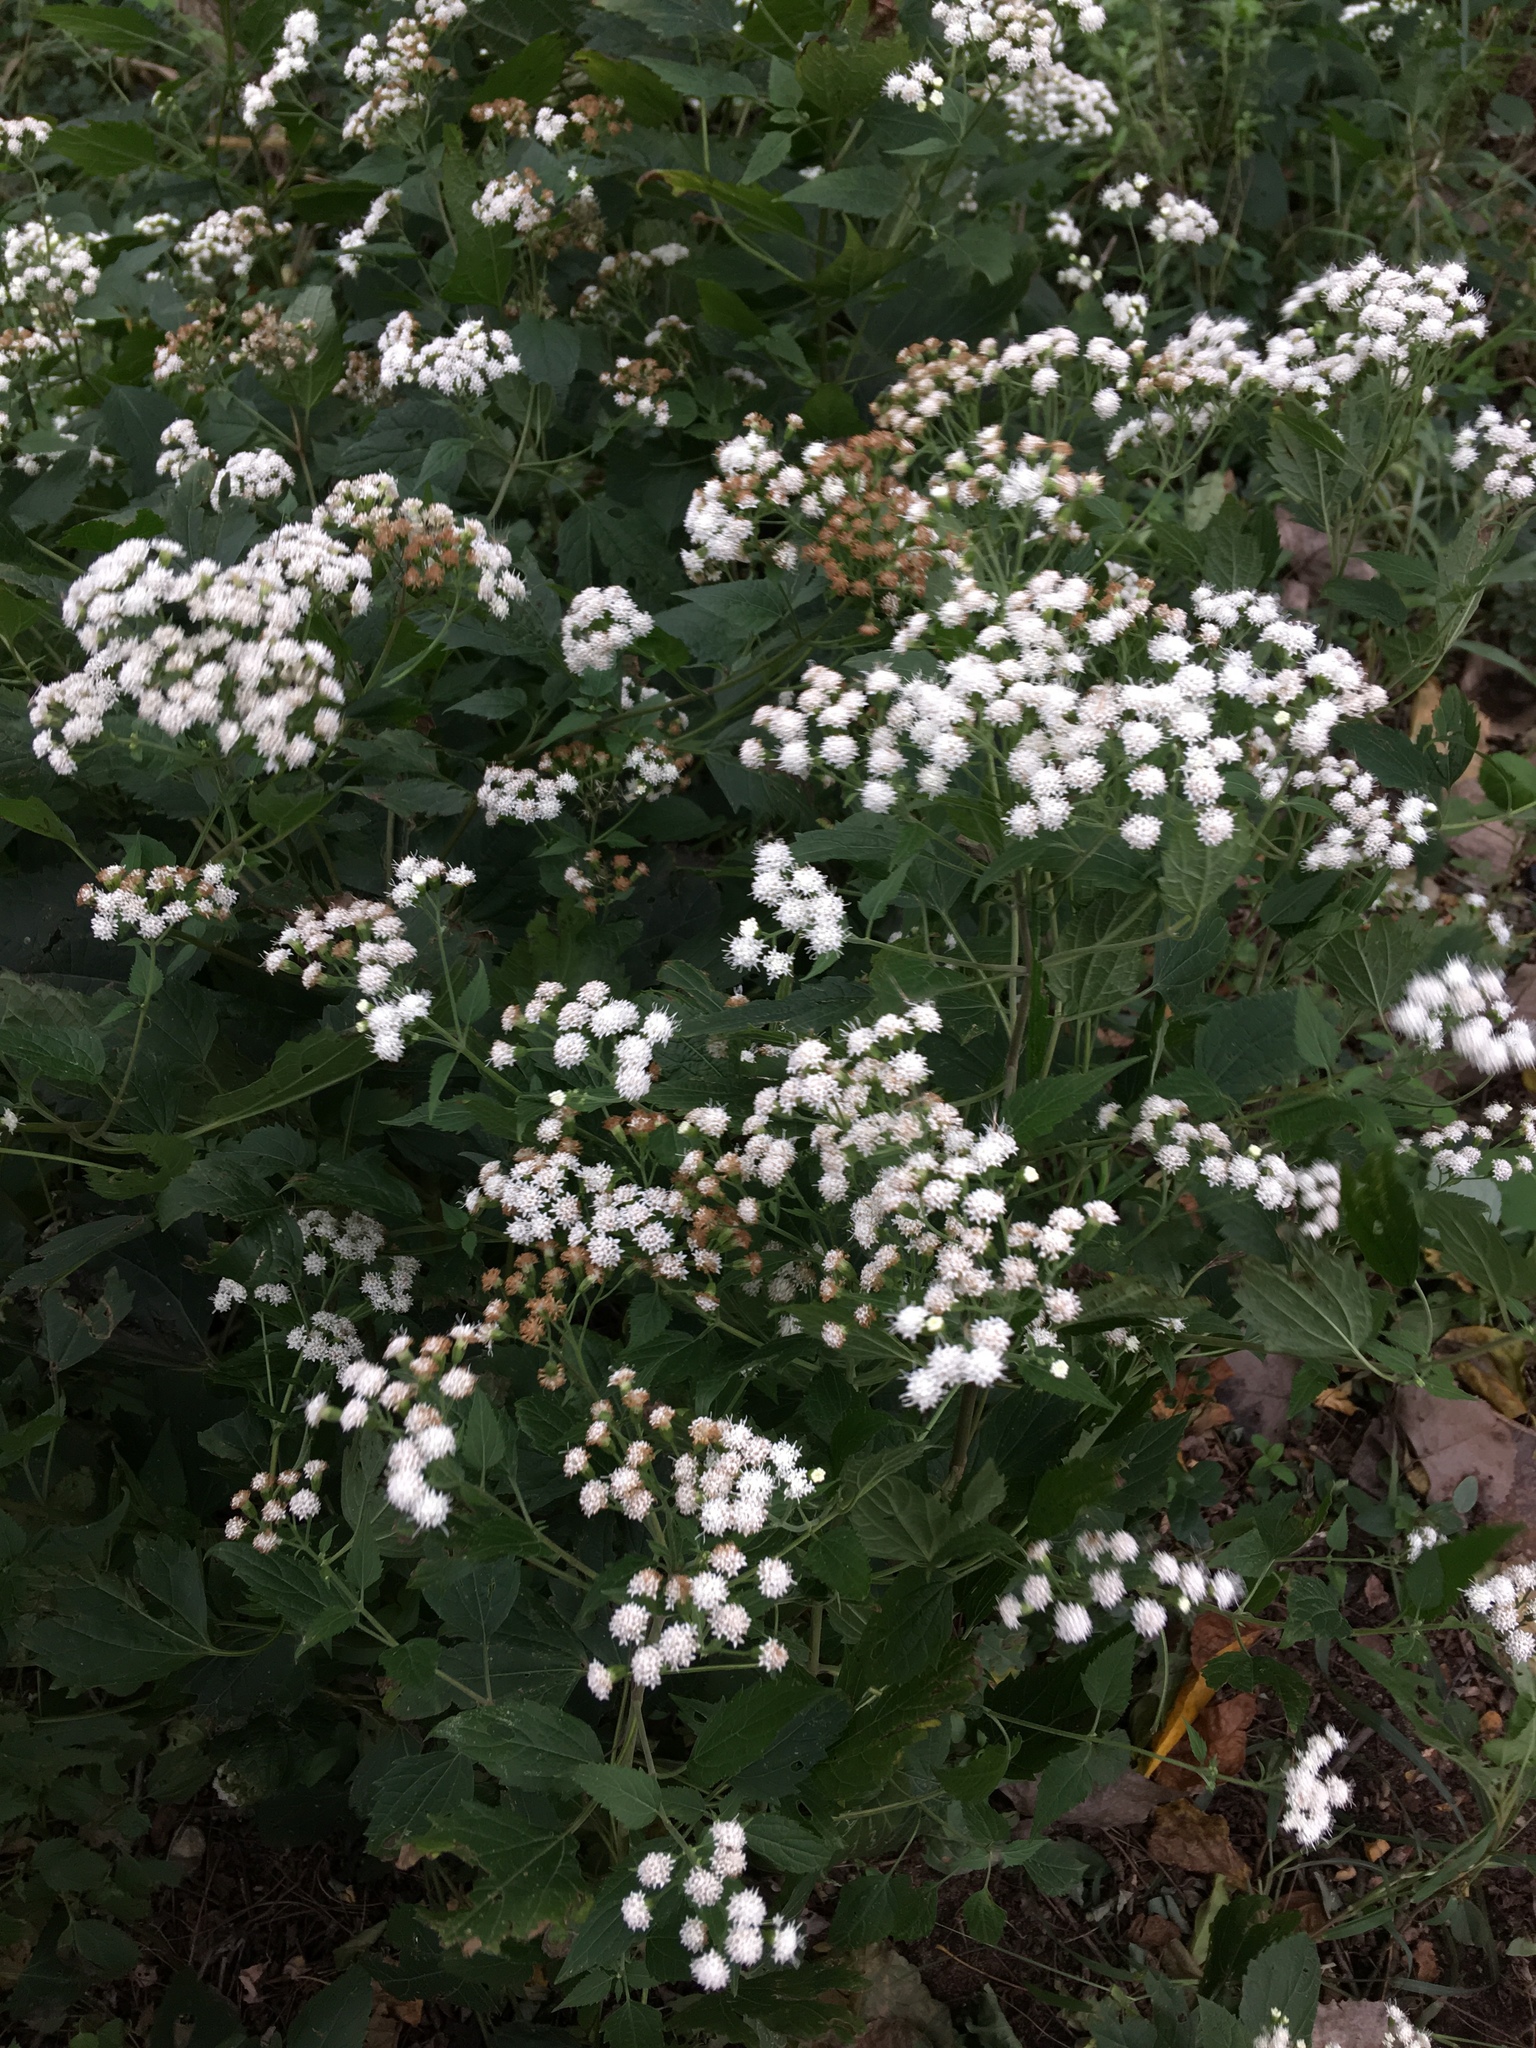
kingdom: Plantae
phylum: Tracheophyta
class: Magnoliopsida
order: Asterales
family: Asteraceae
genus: Ageratina
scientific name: Ageratina altissima
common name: White snakeroot
